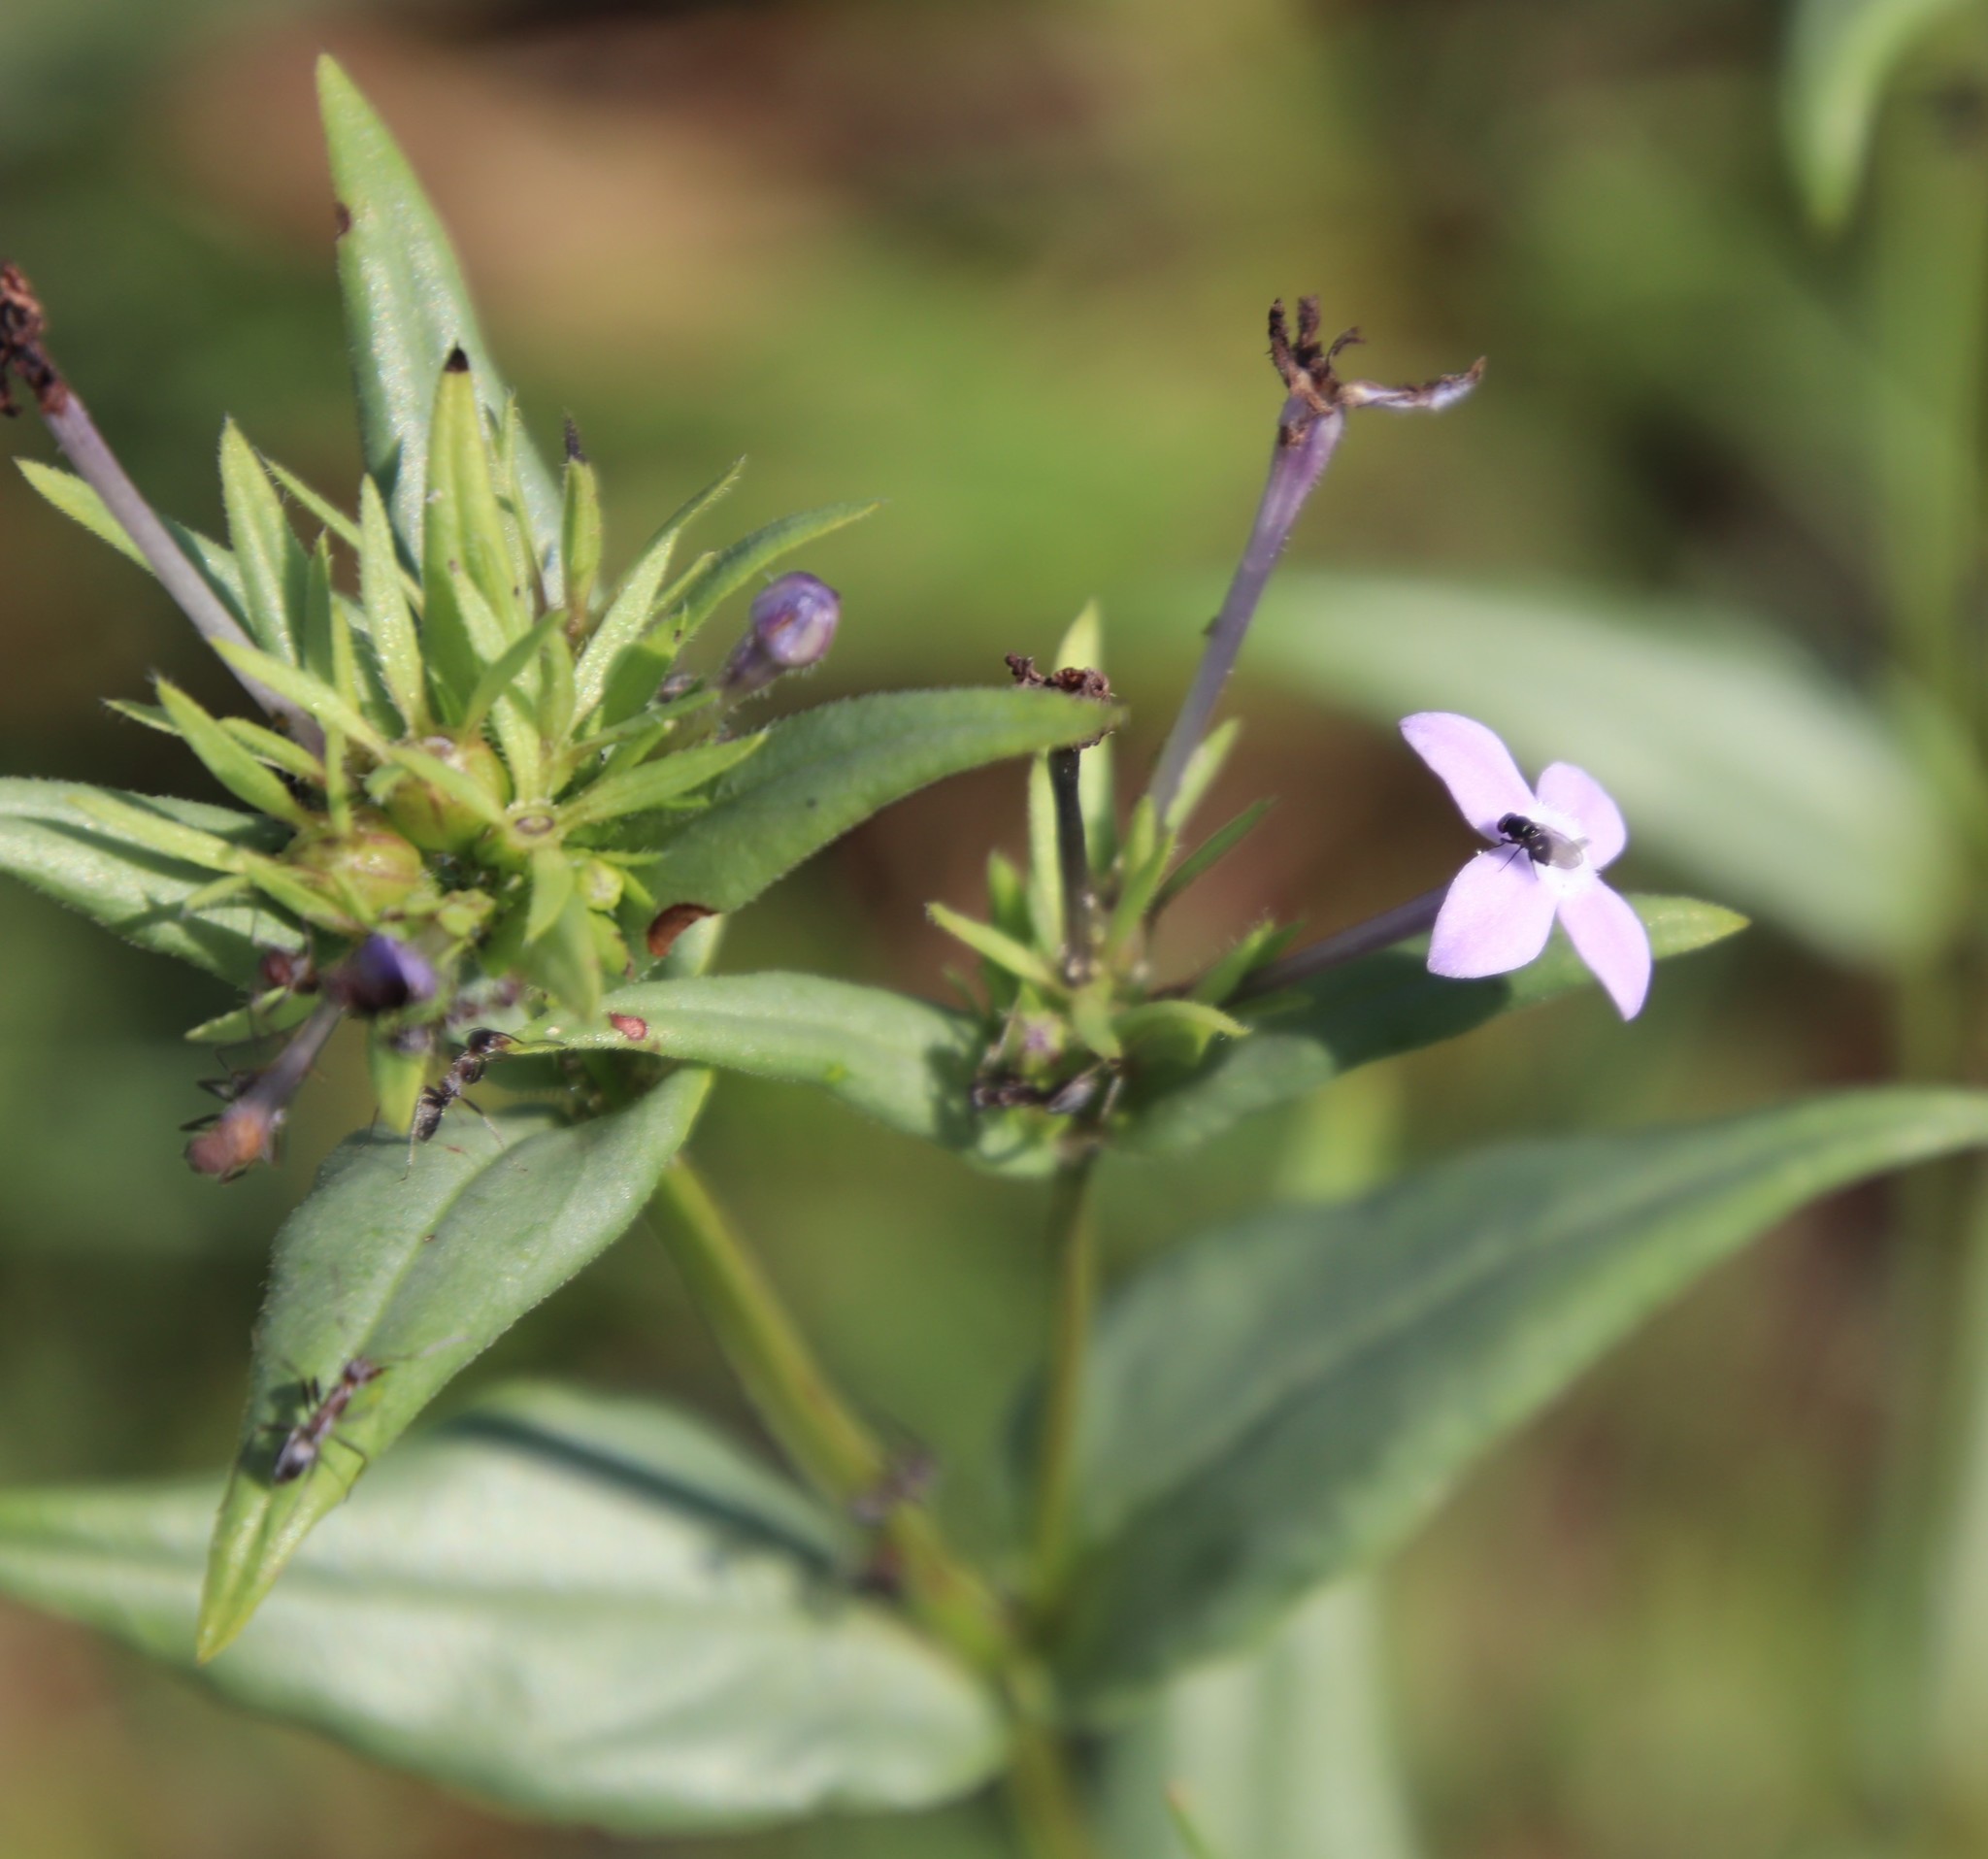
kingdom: Plantae
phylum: Tracheophyta
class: Magnoliopsida
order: Gentianales
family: Rubiaceae
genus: Conostomium
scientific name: Conostomium natalense
